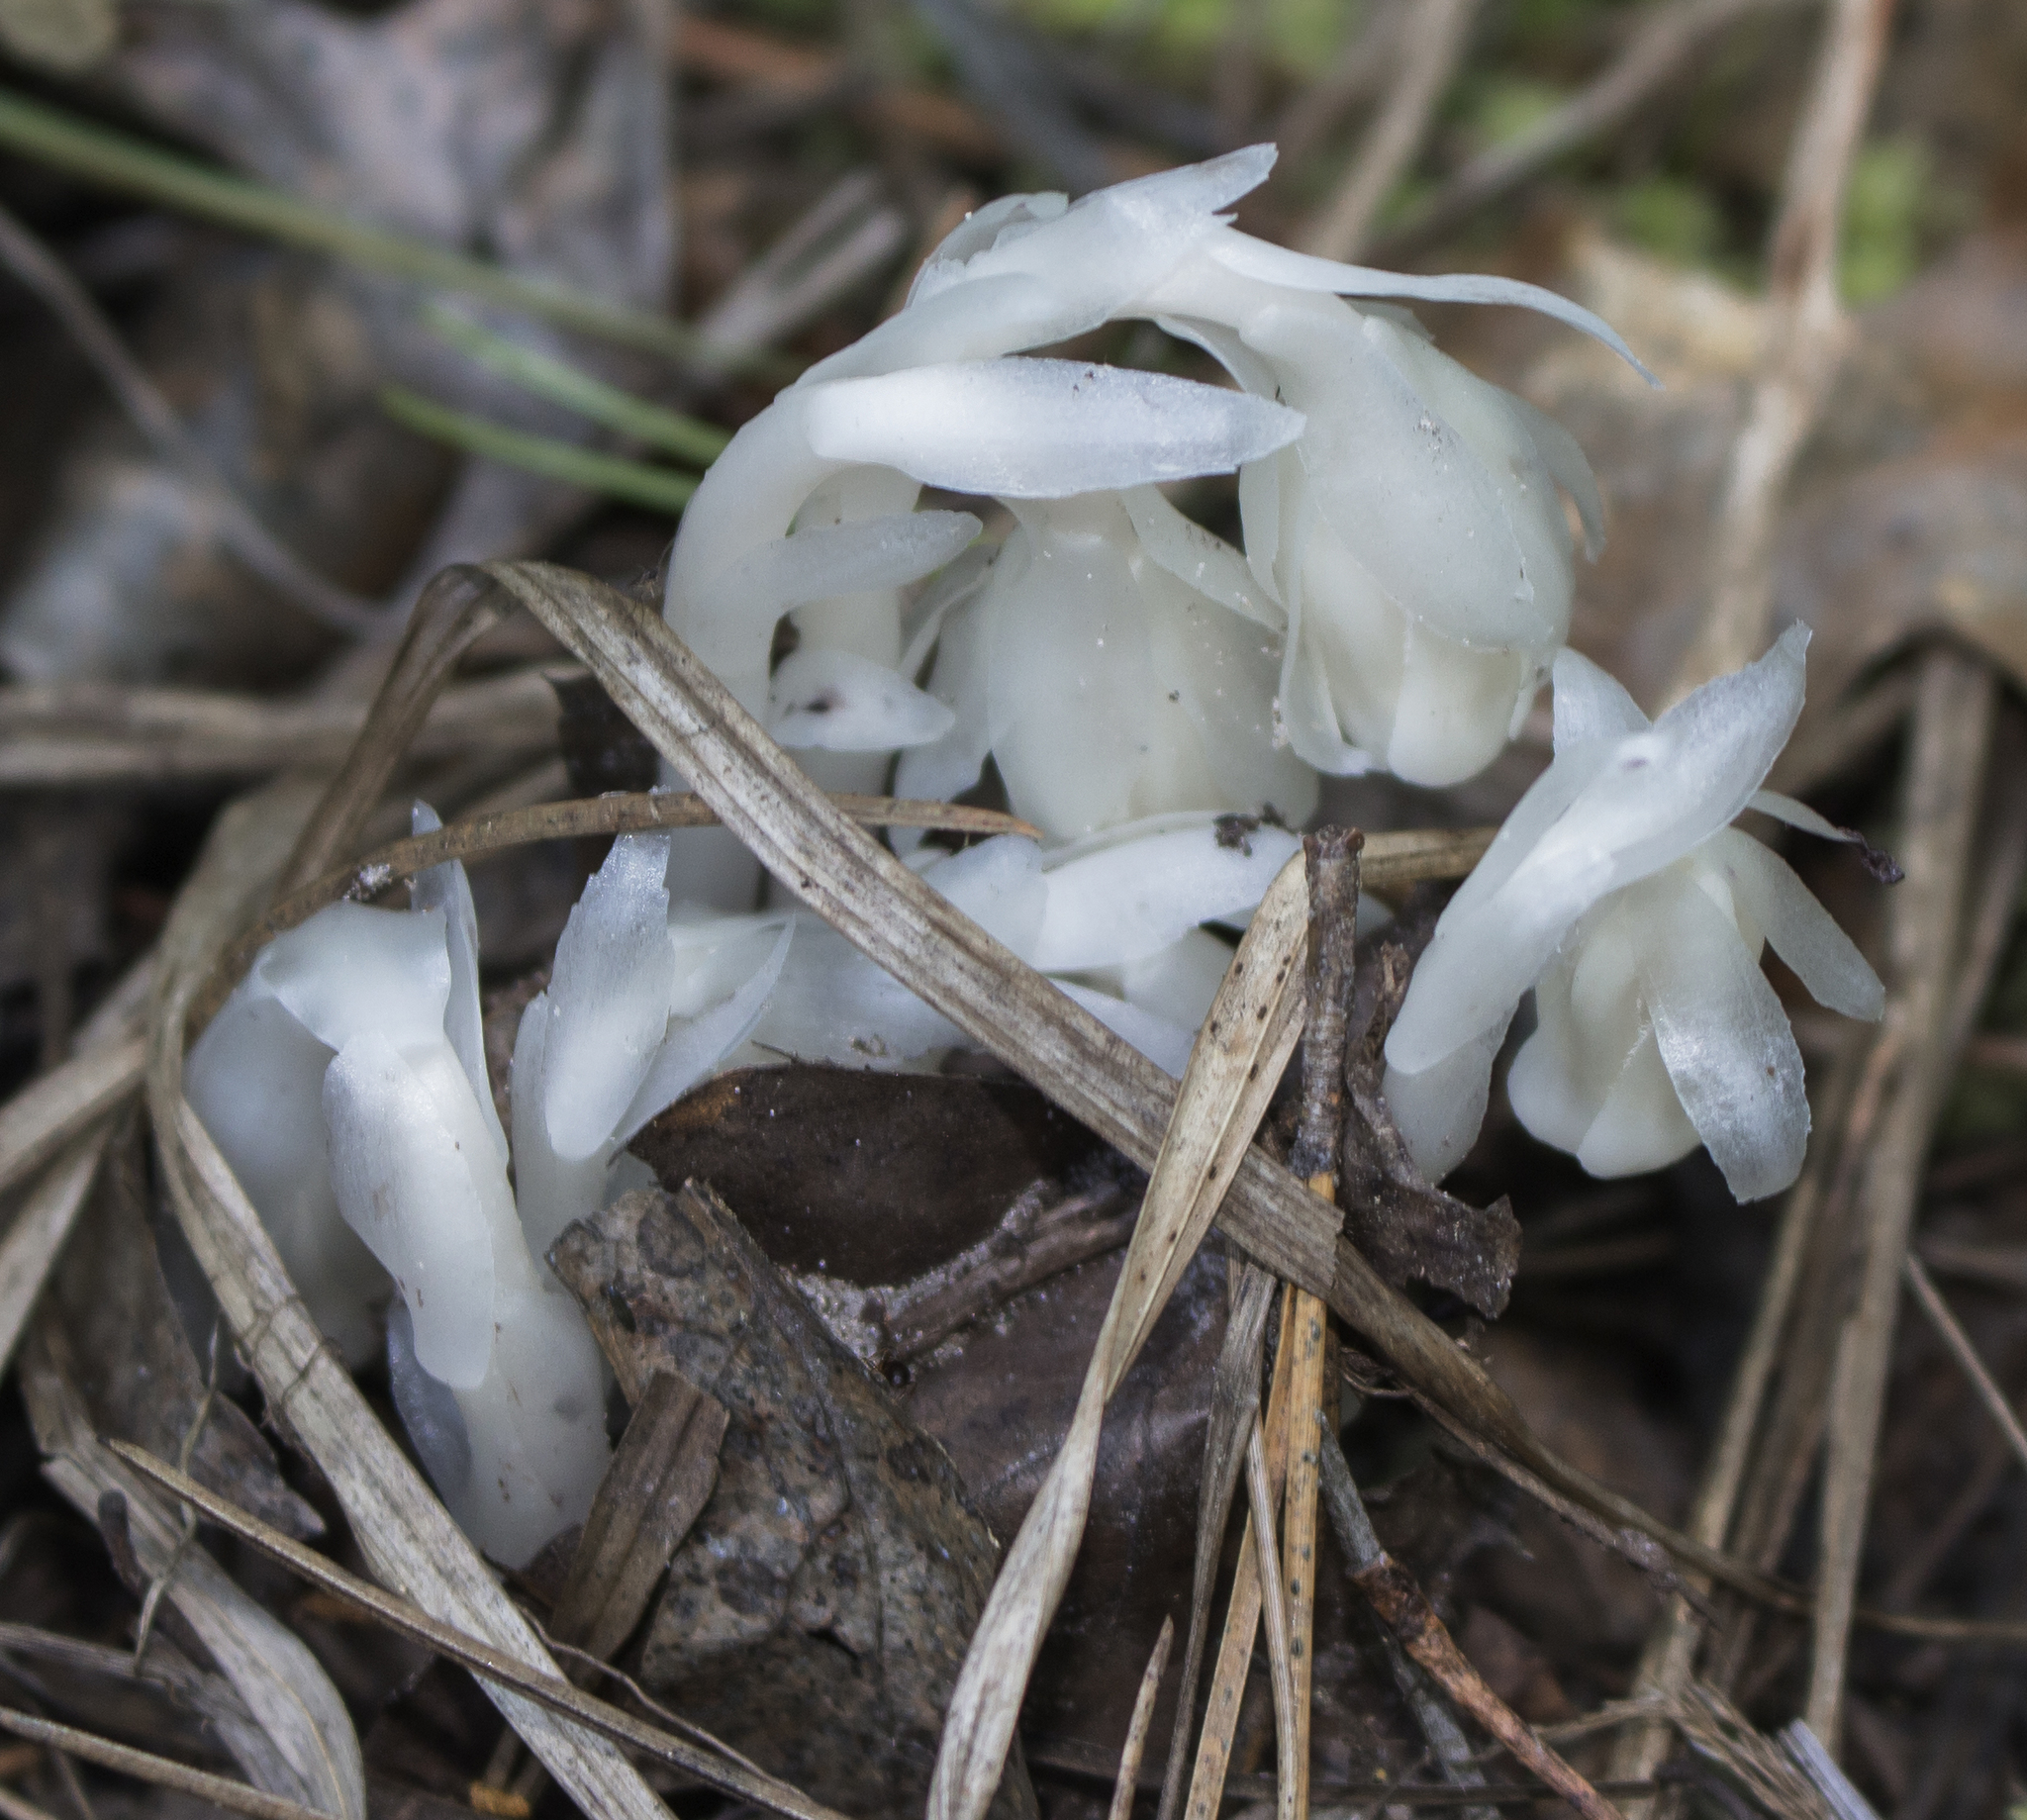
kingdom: Plantae
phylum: Tracheophyta
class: Magnoliopsida
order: Ericales
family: Ericaceae
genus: Monotropa
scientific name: Monotropa uniflora
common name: Convulsion root
